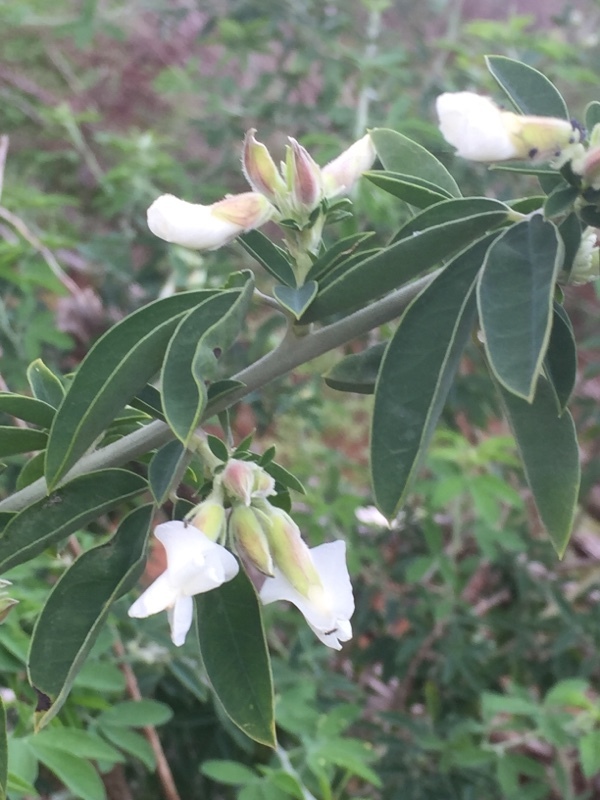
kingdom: Plantae
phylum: Tracheophyta
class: Magnoliopsida
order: Fabales
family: Fabaceae
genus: Chamaecytisus
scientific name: Chamaecytisus prolifer
